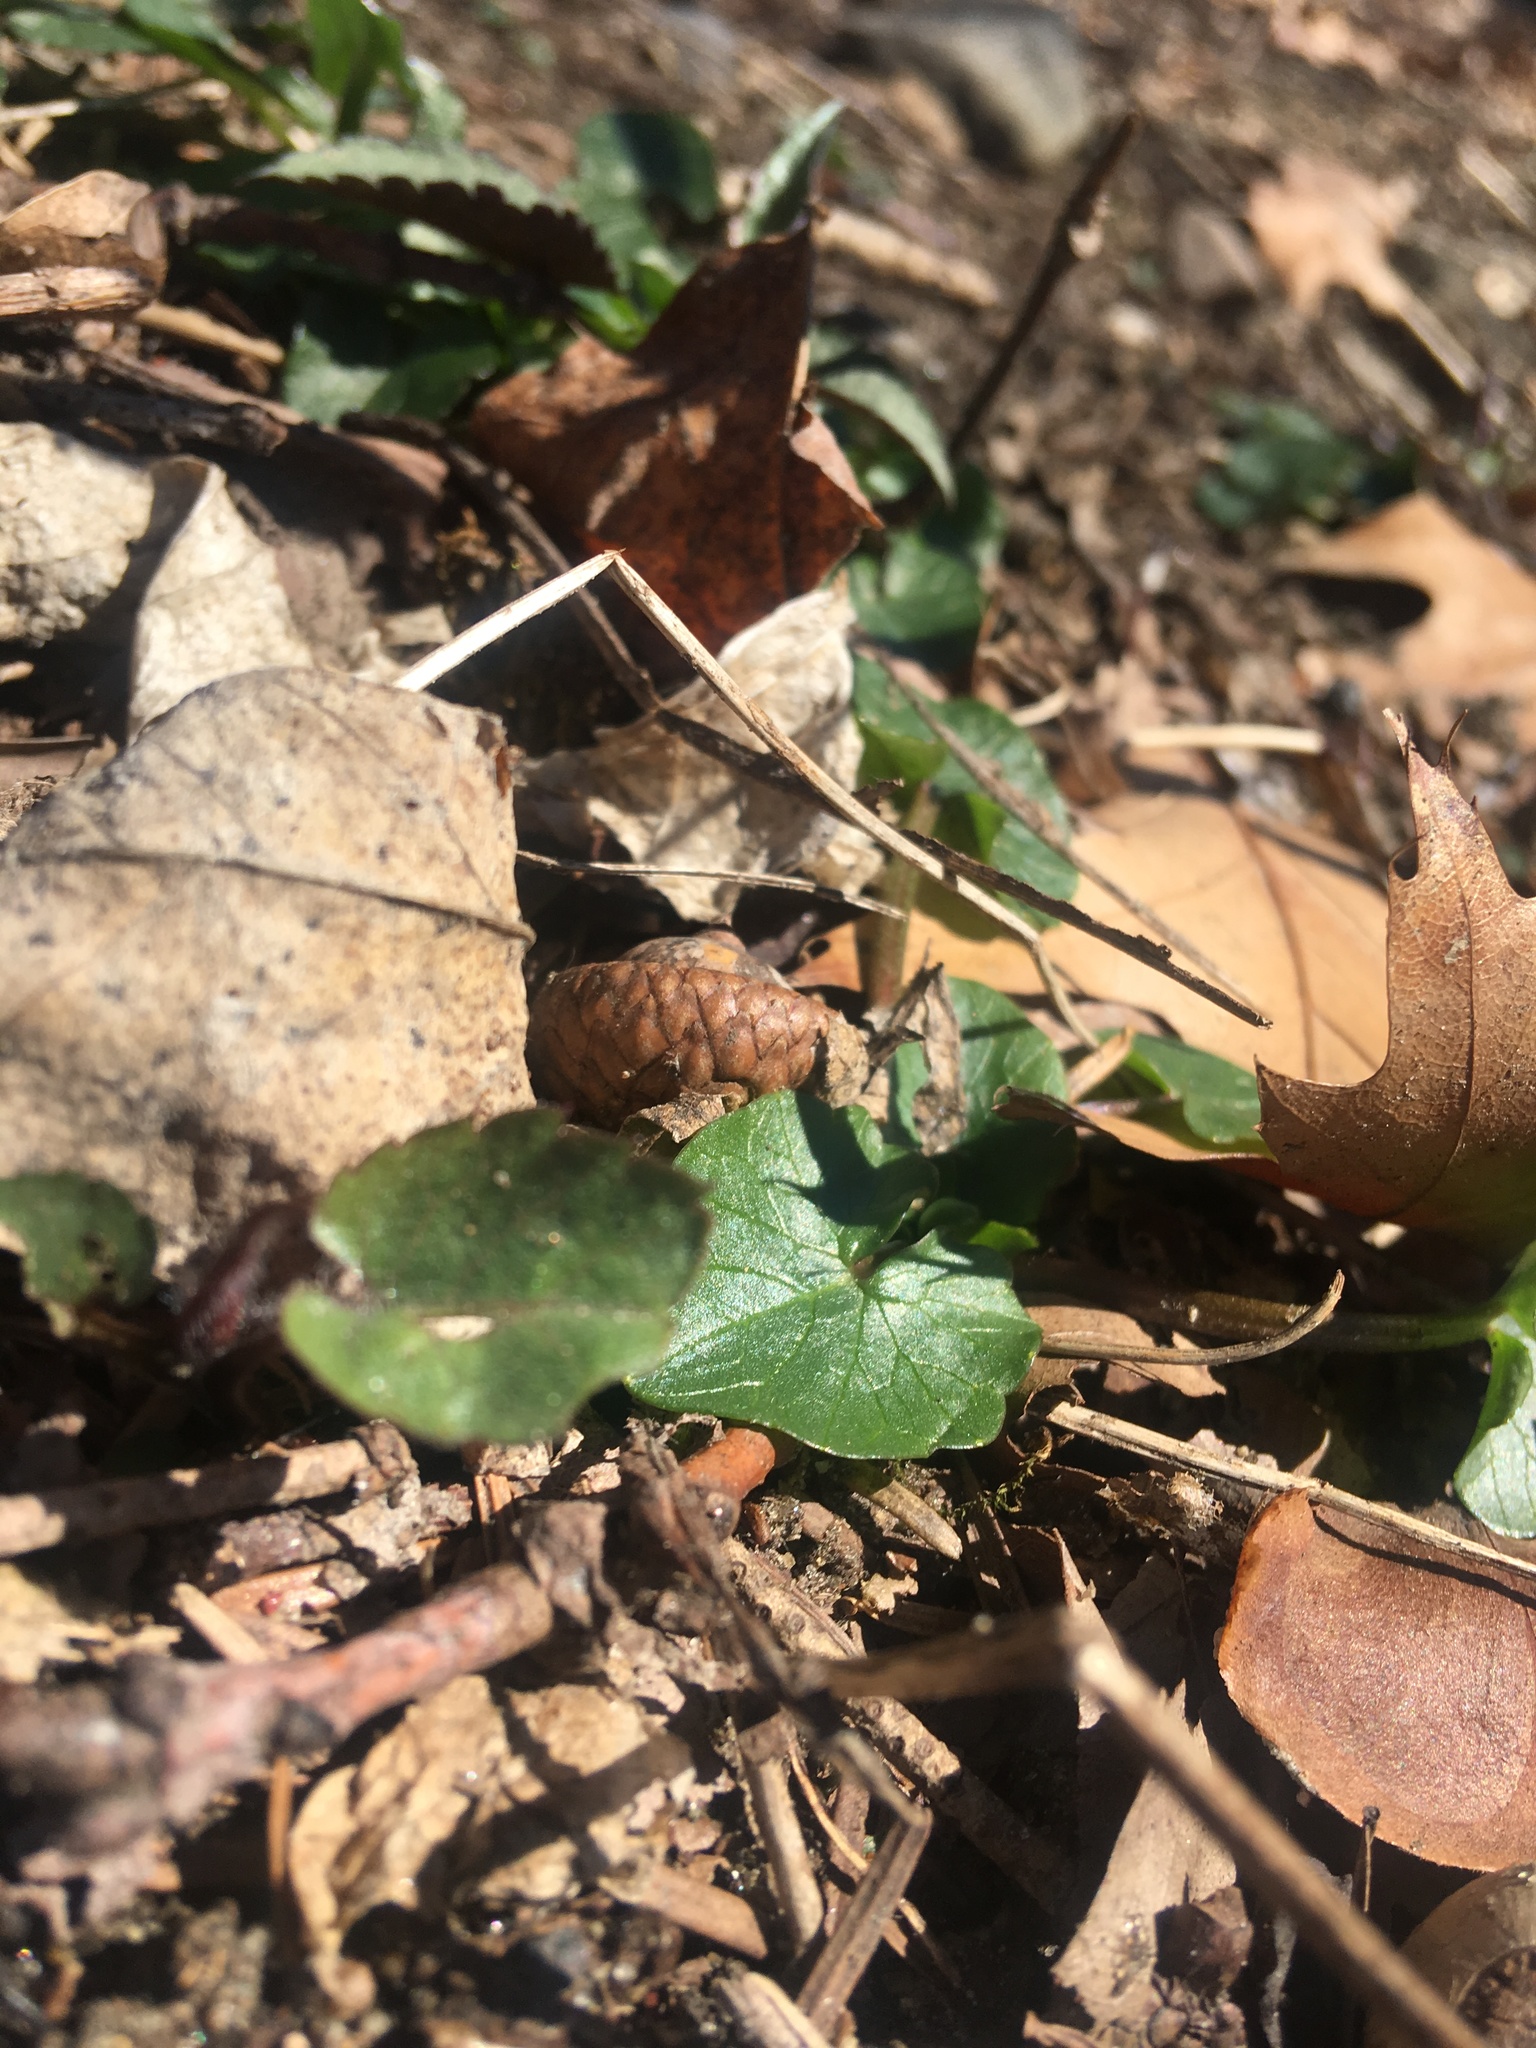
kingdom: Plantae
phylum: Tracheophyta
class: Magnoliopsida
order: Ranunculales
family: Ranunculaceae
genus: Ficaria
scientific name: Ficaria verna
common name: Lesser celandine
